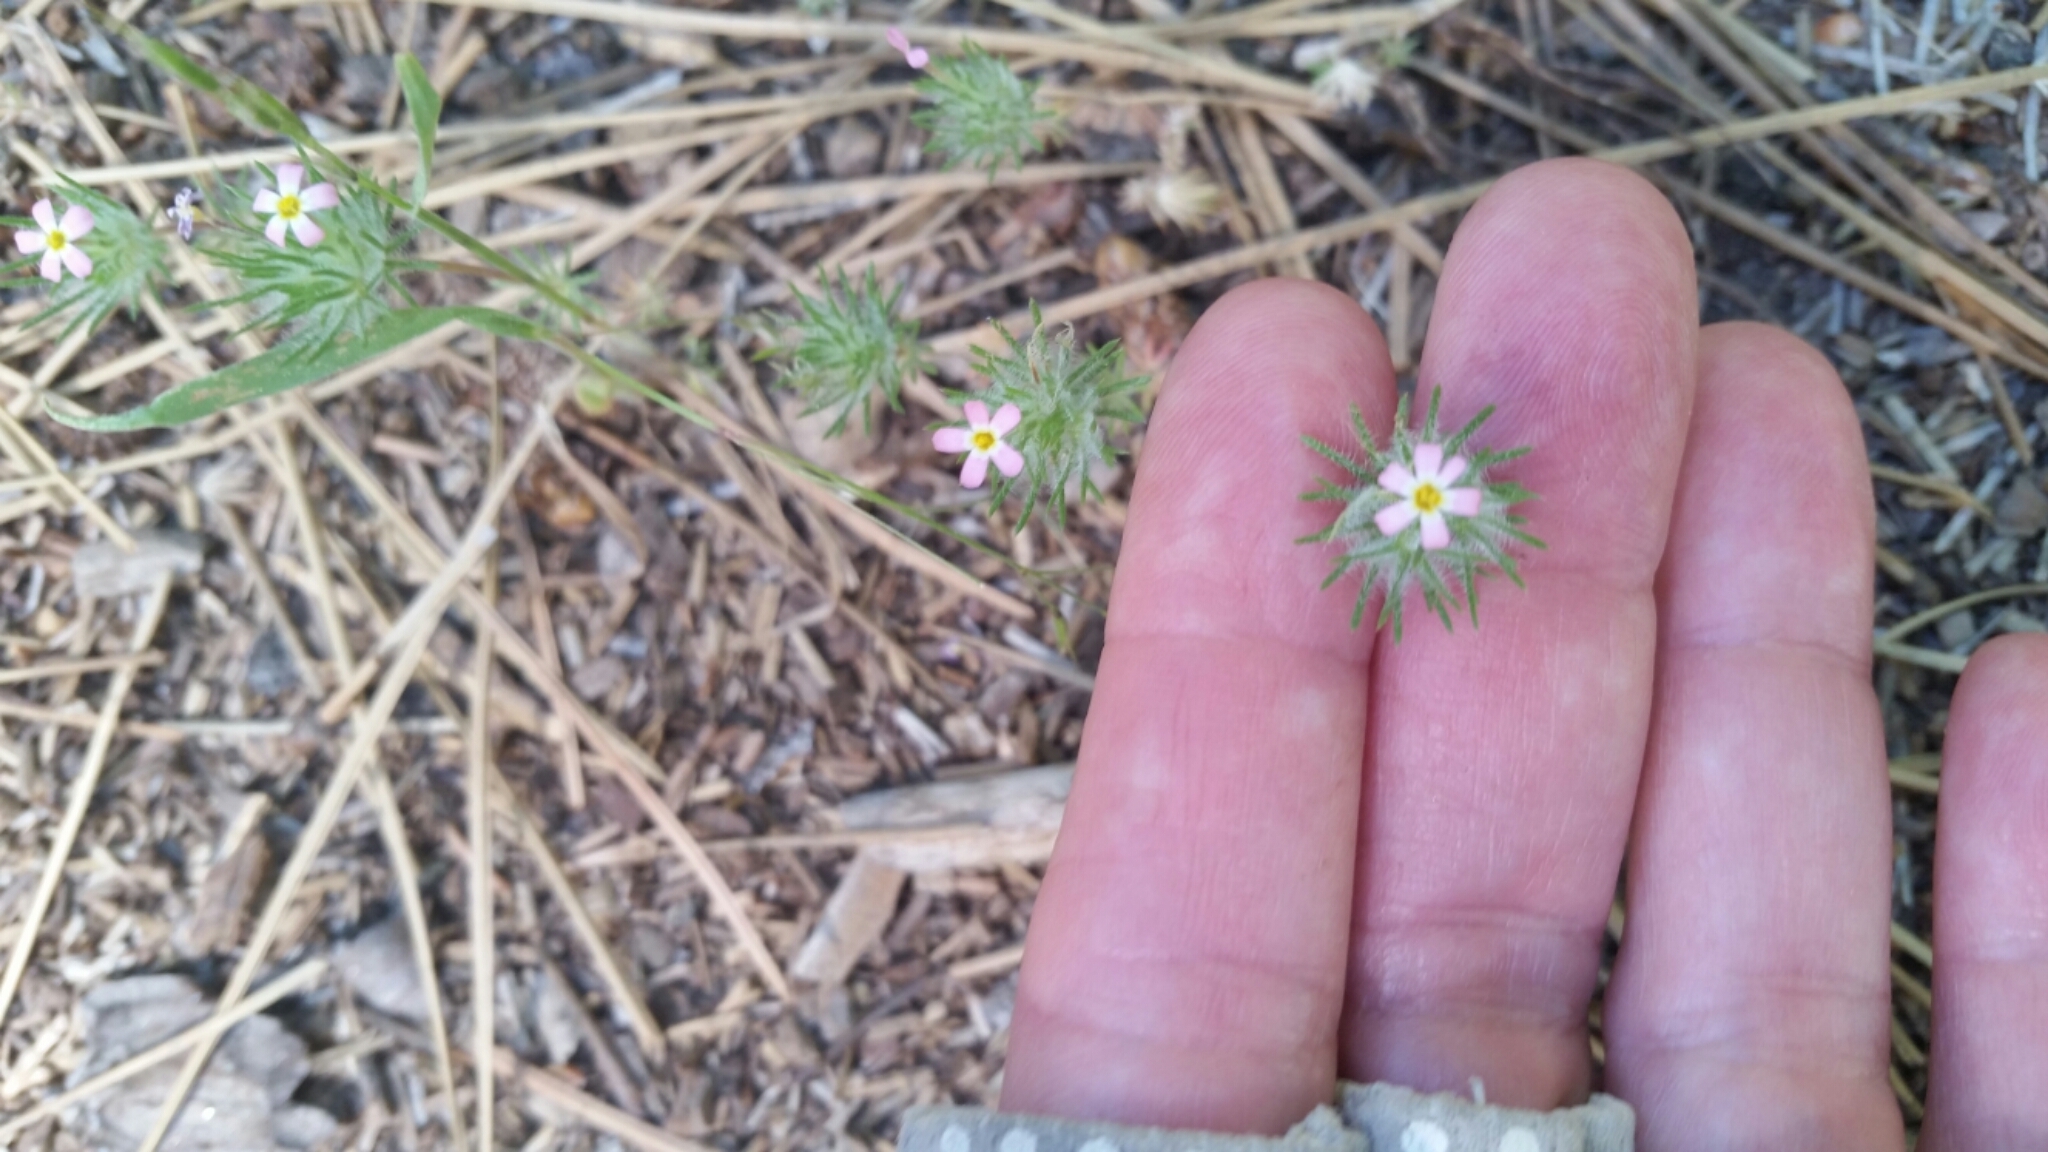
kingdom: Plantae
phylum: Tracheophyta
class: Magnoliopsida
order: Ericales
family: Polemoniaceae
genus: Leptosiphon
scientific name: Leptosiphon ciliatus
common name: Whiskerbrush
